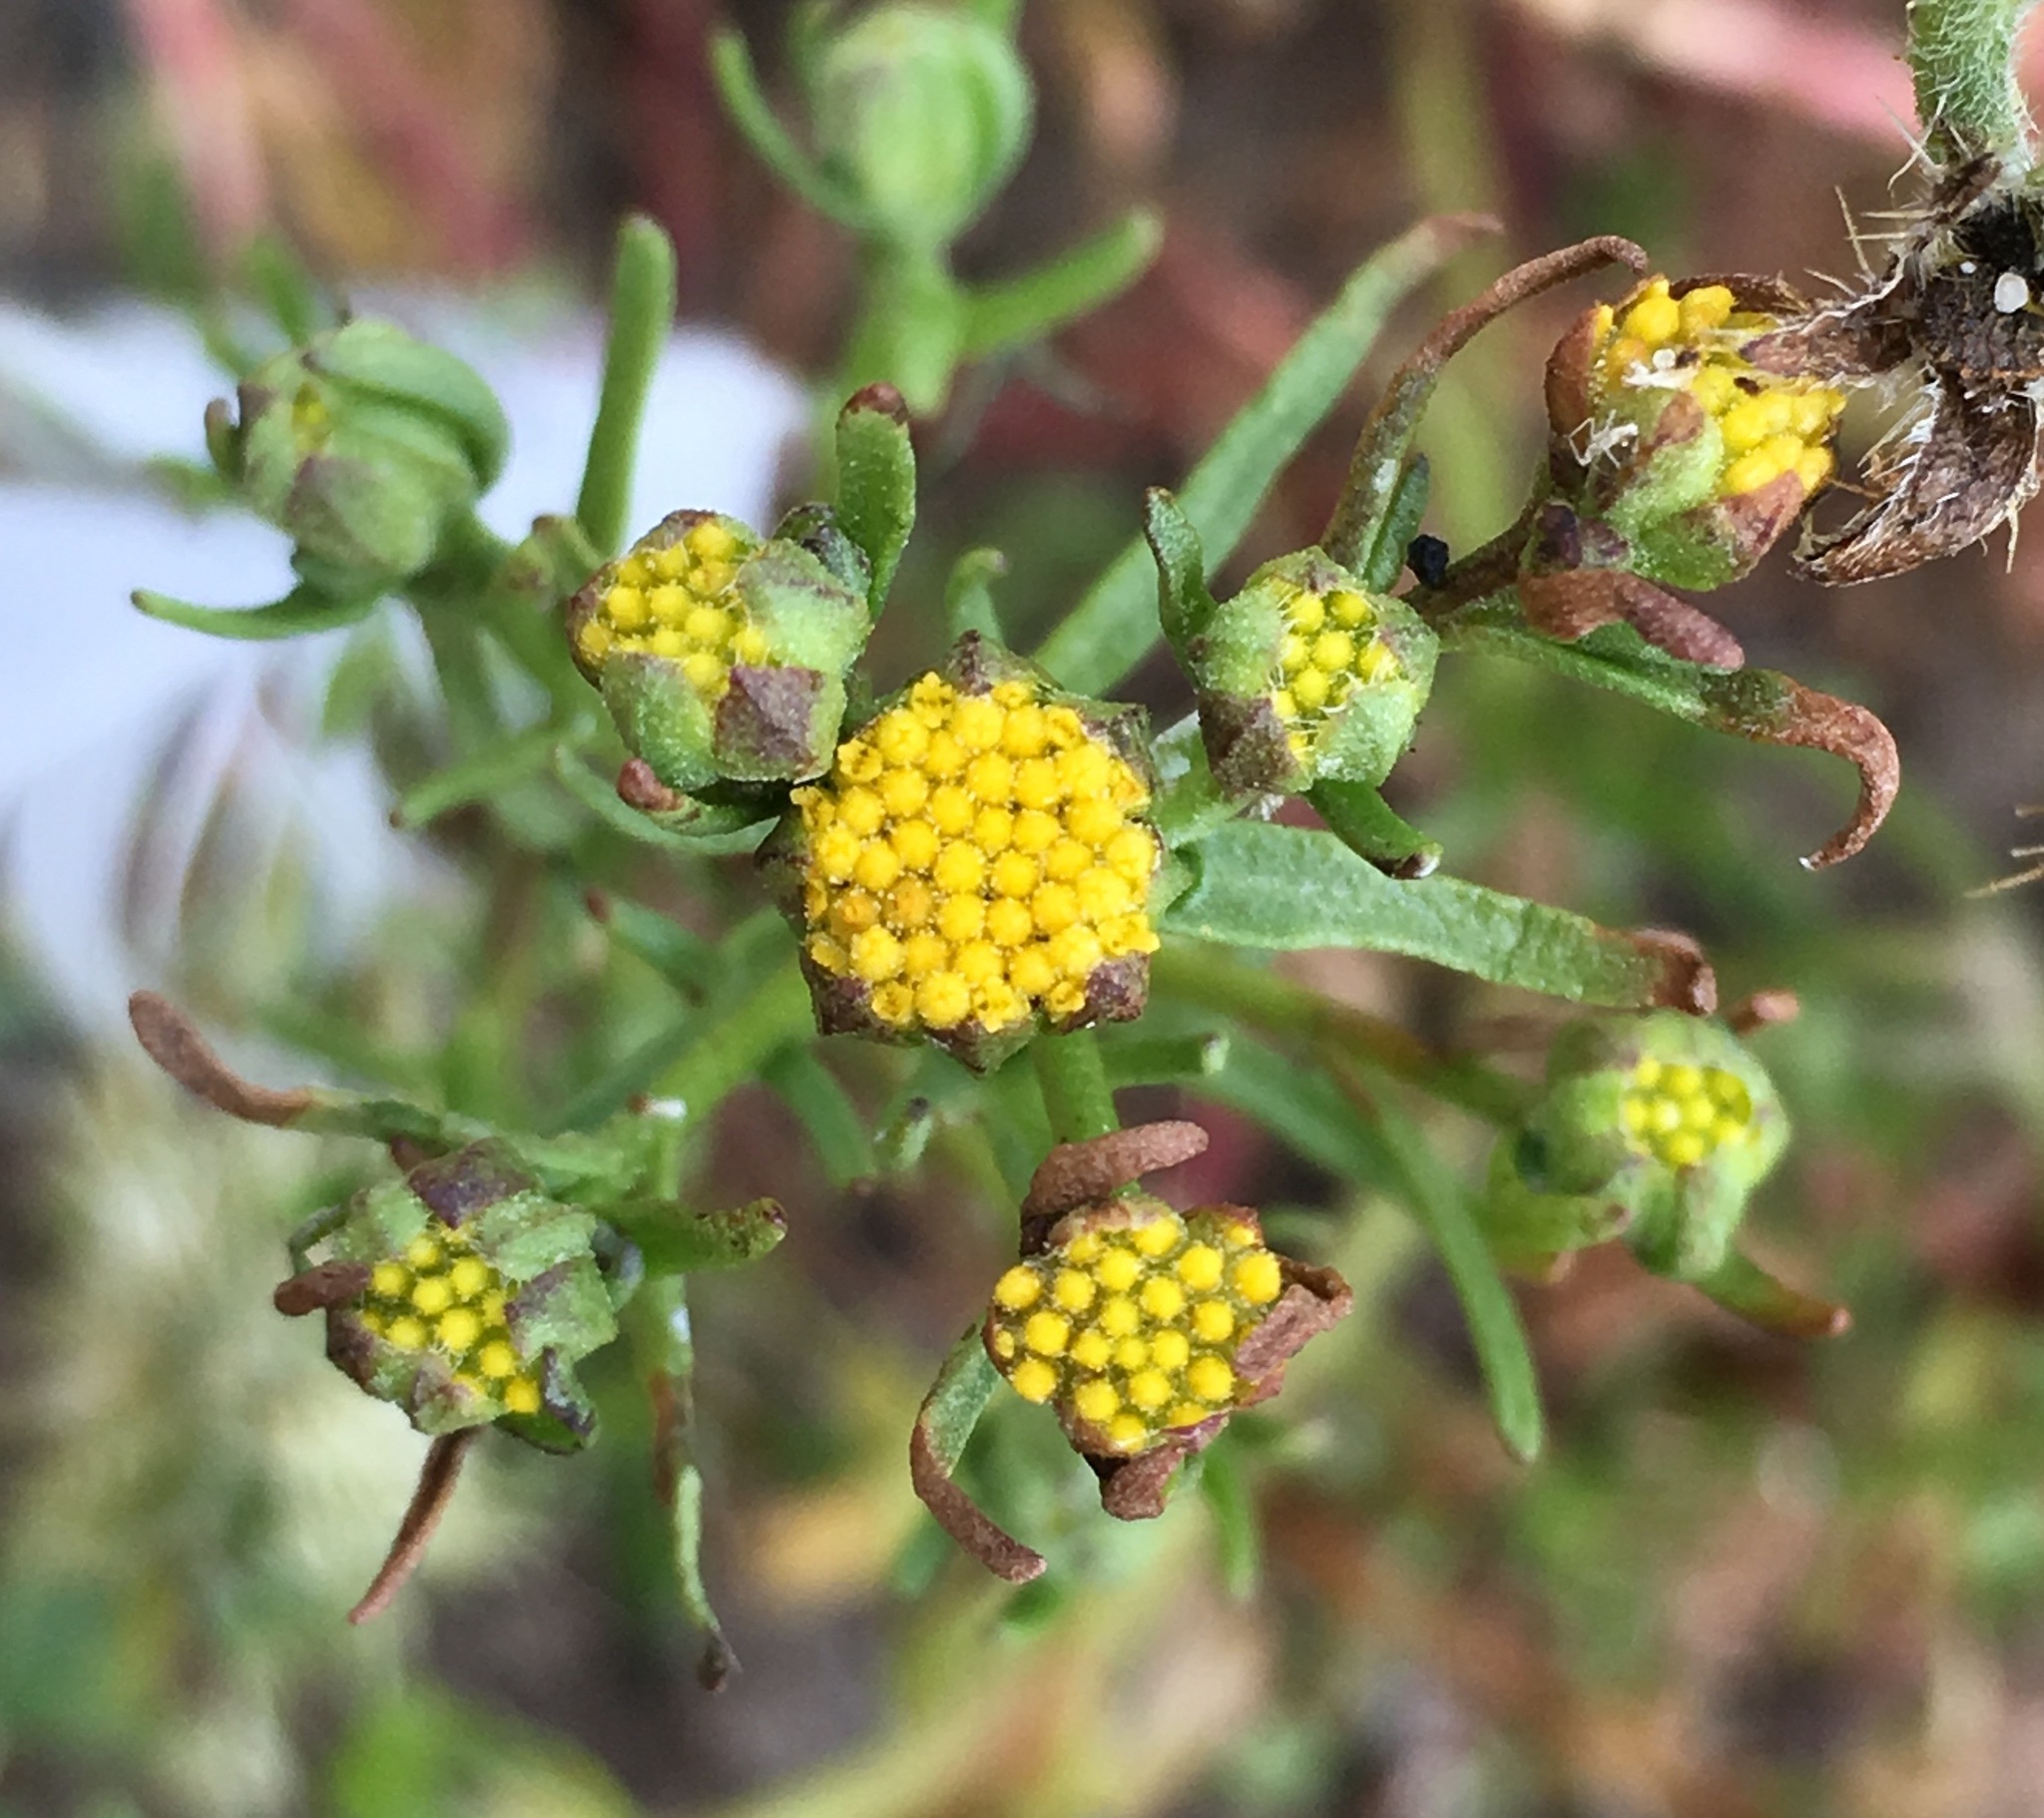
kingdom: Plantae
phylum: Tracheophyta
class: Magnoliopsida
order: Asterales
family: Asteraceae
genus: Amblyopappus
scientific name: Amblyopappus pusillus
